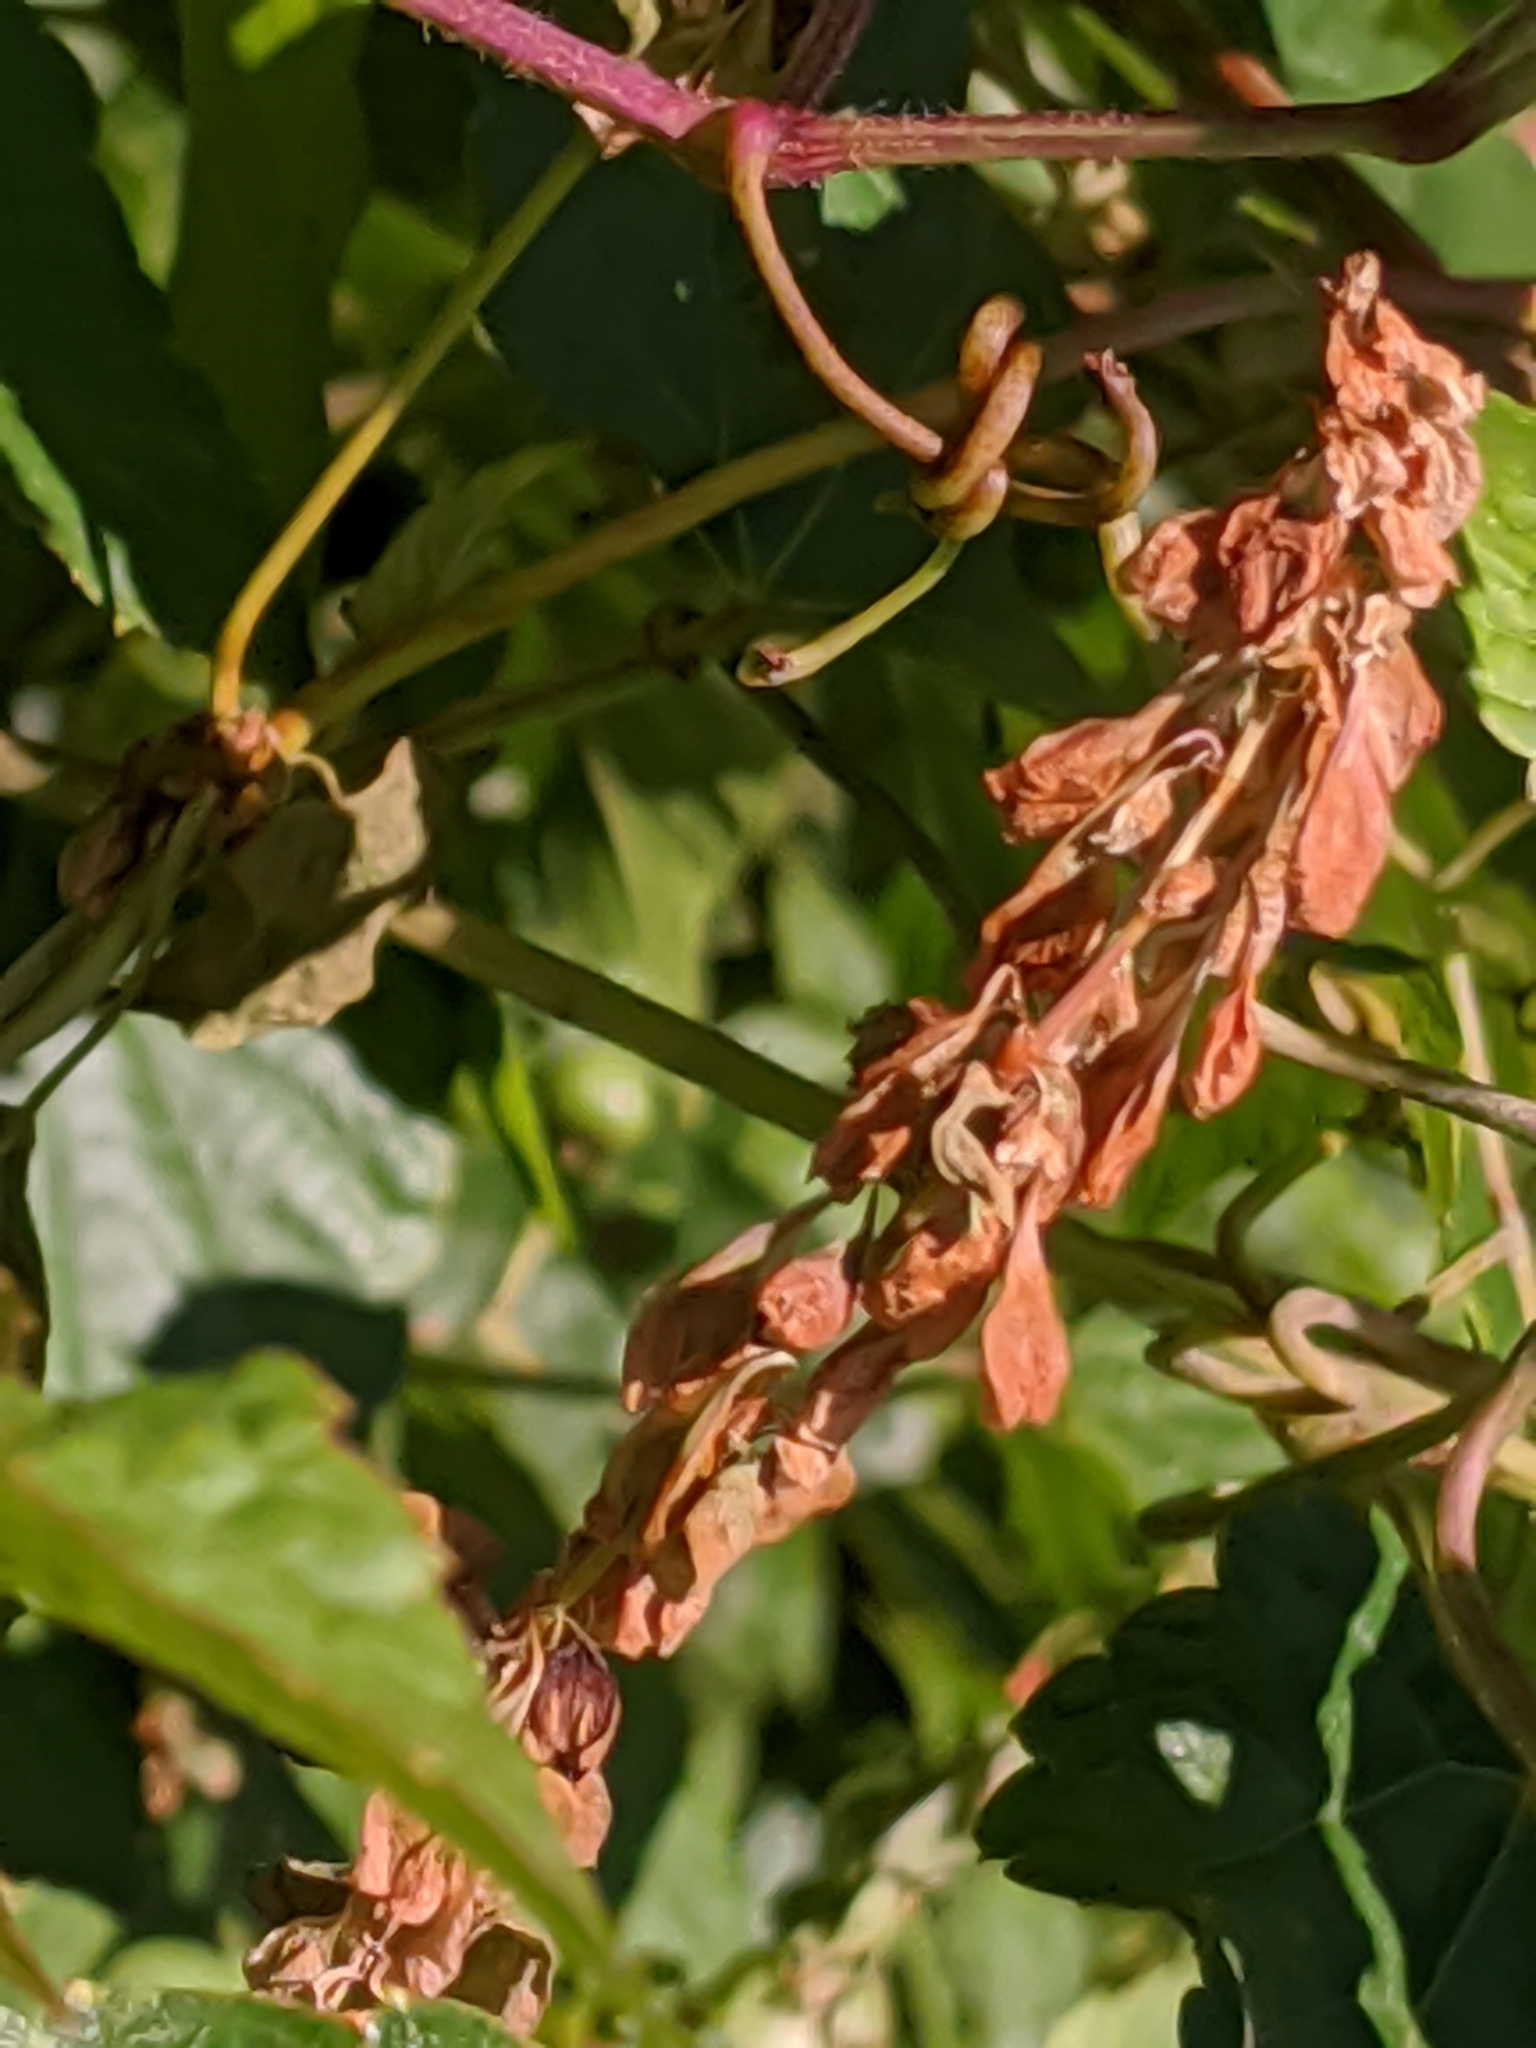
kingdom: Plantae
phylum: Tracheophyta
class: Magnoliopsida
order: Caryophyllales
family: Polygonaceae
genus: Fallopia
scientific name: Fallopia scandens
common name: Climbing false buckwheat
